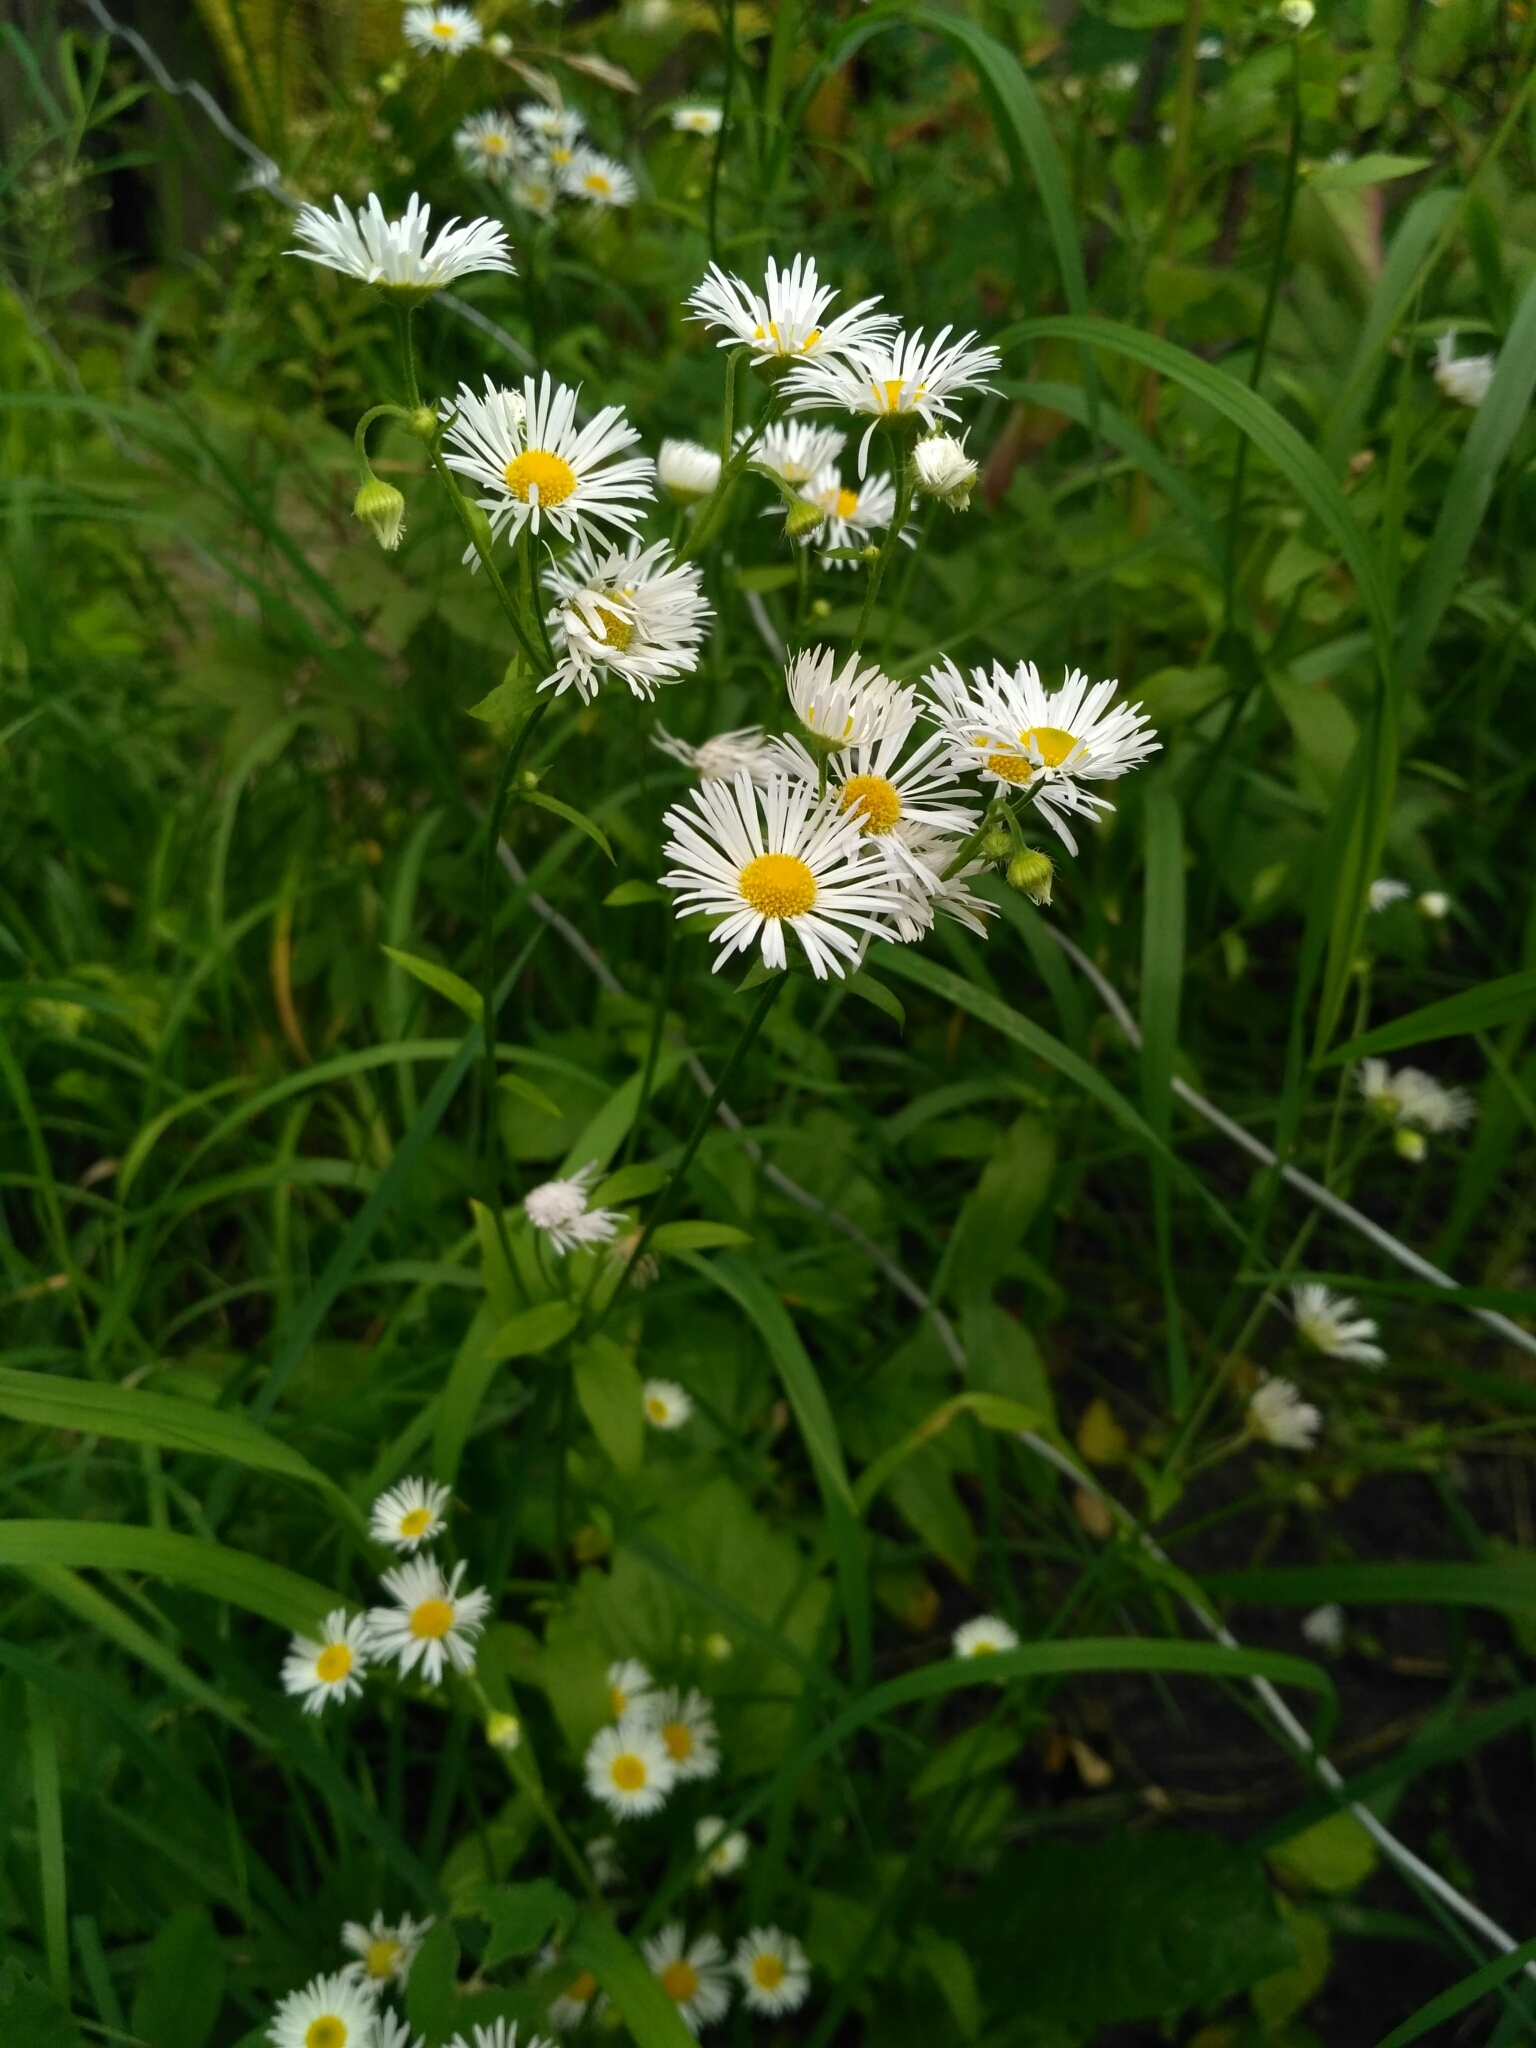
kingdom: Plantae
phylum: Tracheophyta
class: Magnoliopsida
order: Asterales
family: Asteraceae
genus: Erigeron
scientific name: Erigeron annuus
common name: Tall fleabane
